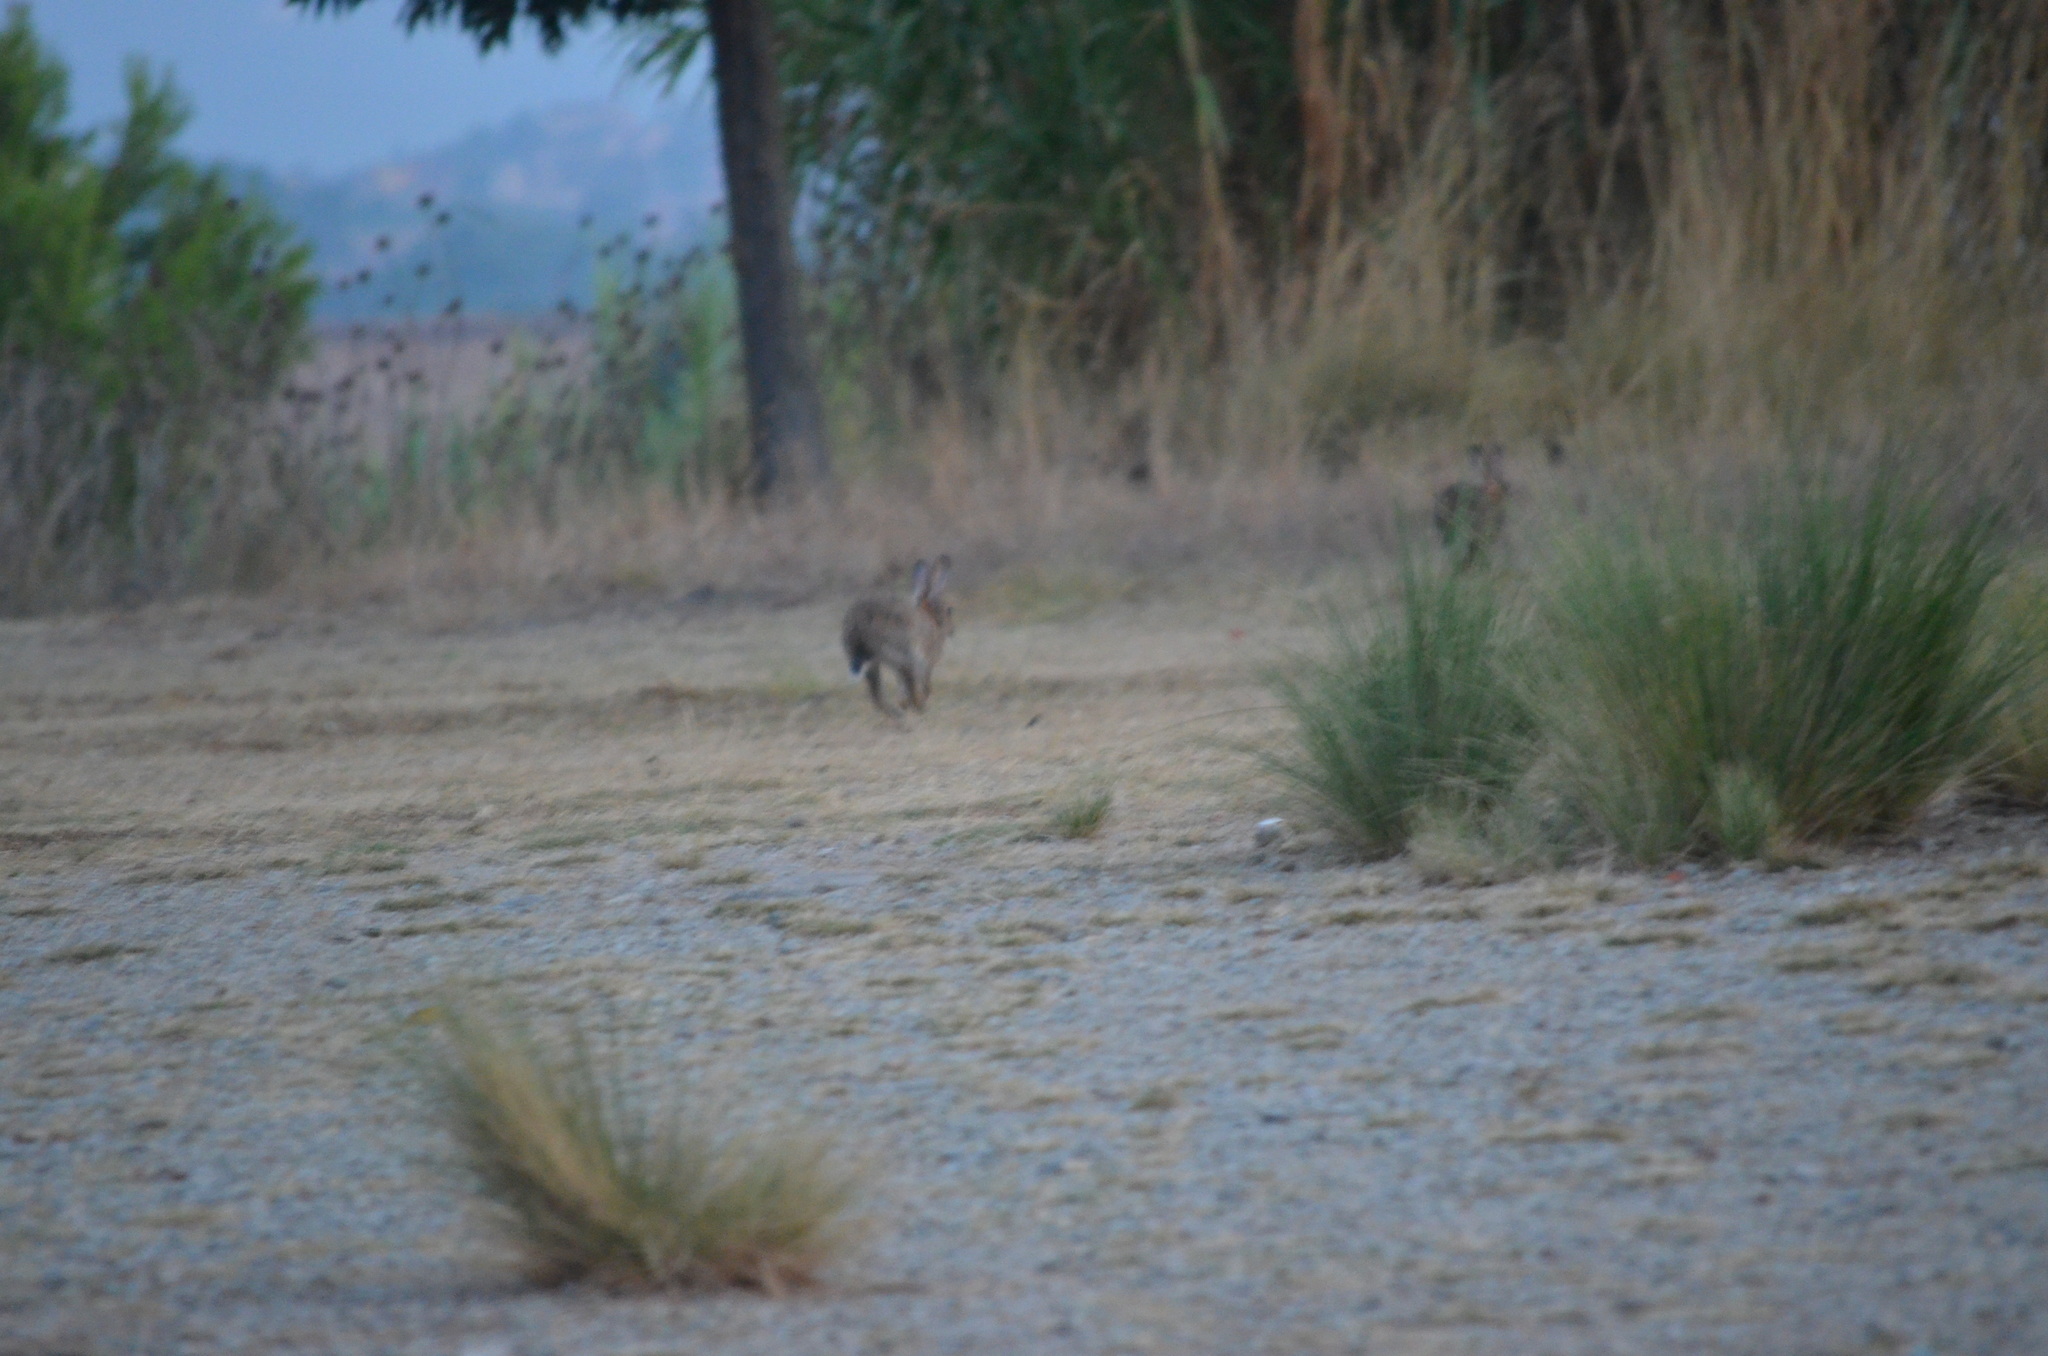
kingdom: Animalia
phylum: Chordata
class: Mammalia
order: Lagomorpha
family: Leporidae
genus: Oryctolagus
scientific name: Oryctolagus cuniculus
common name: European rabbit
